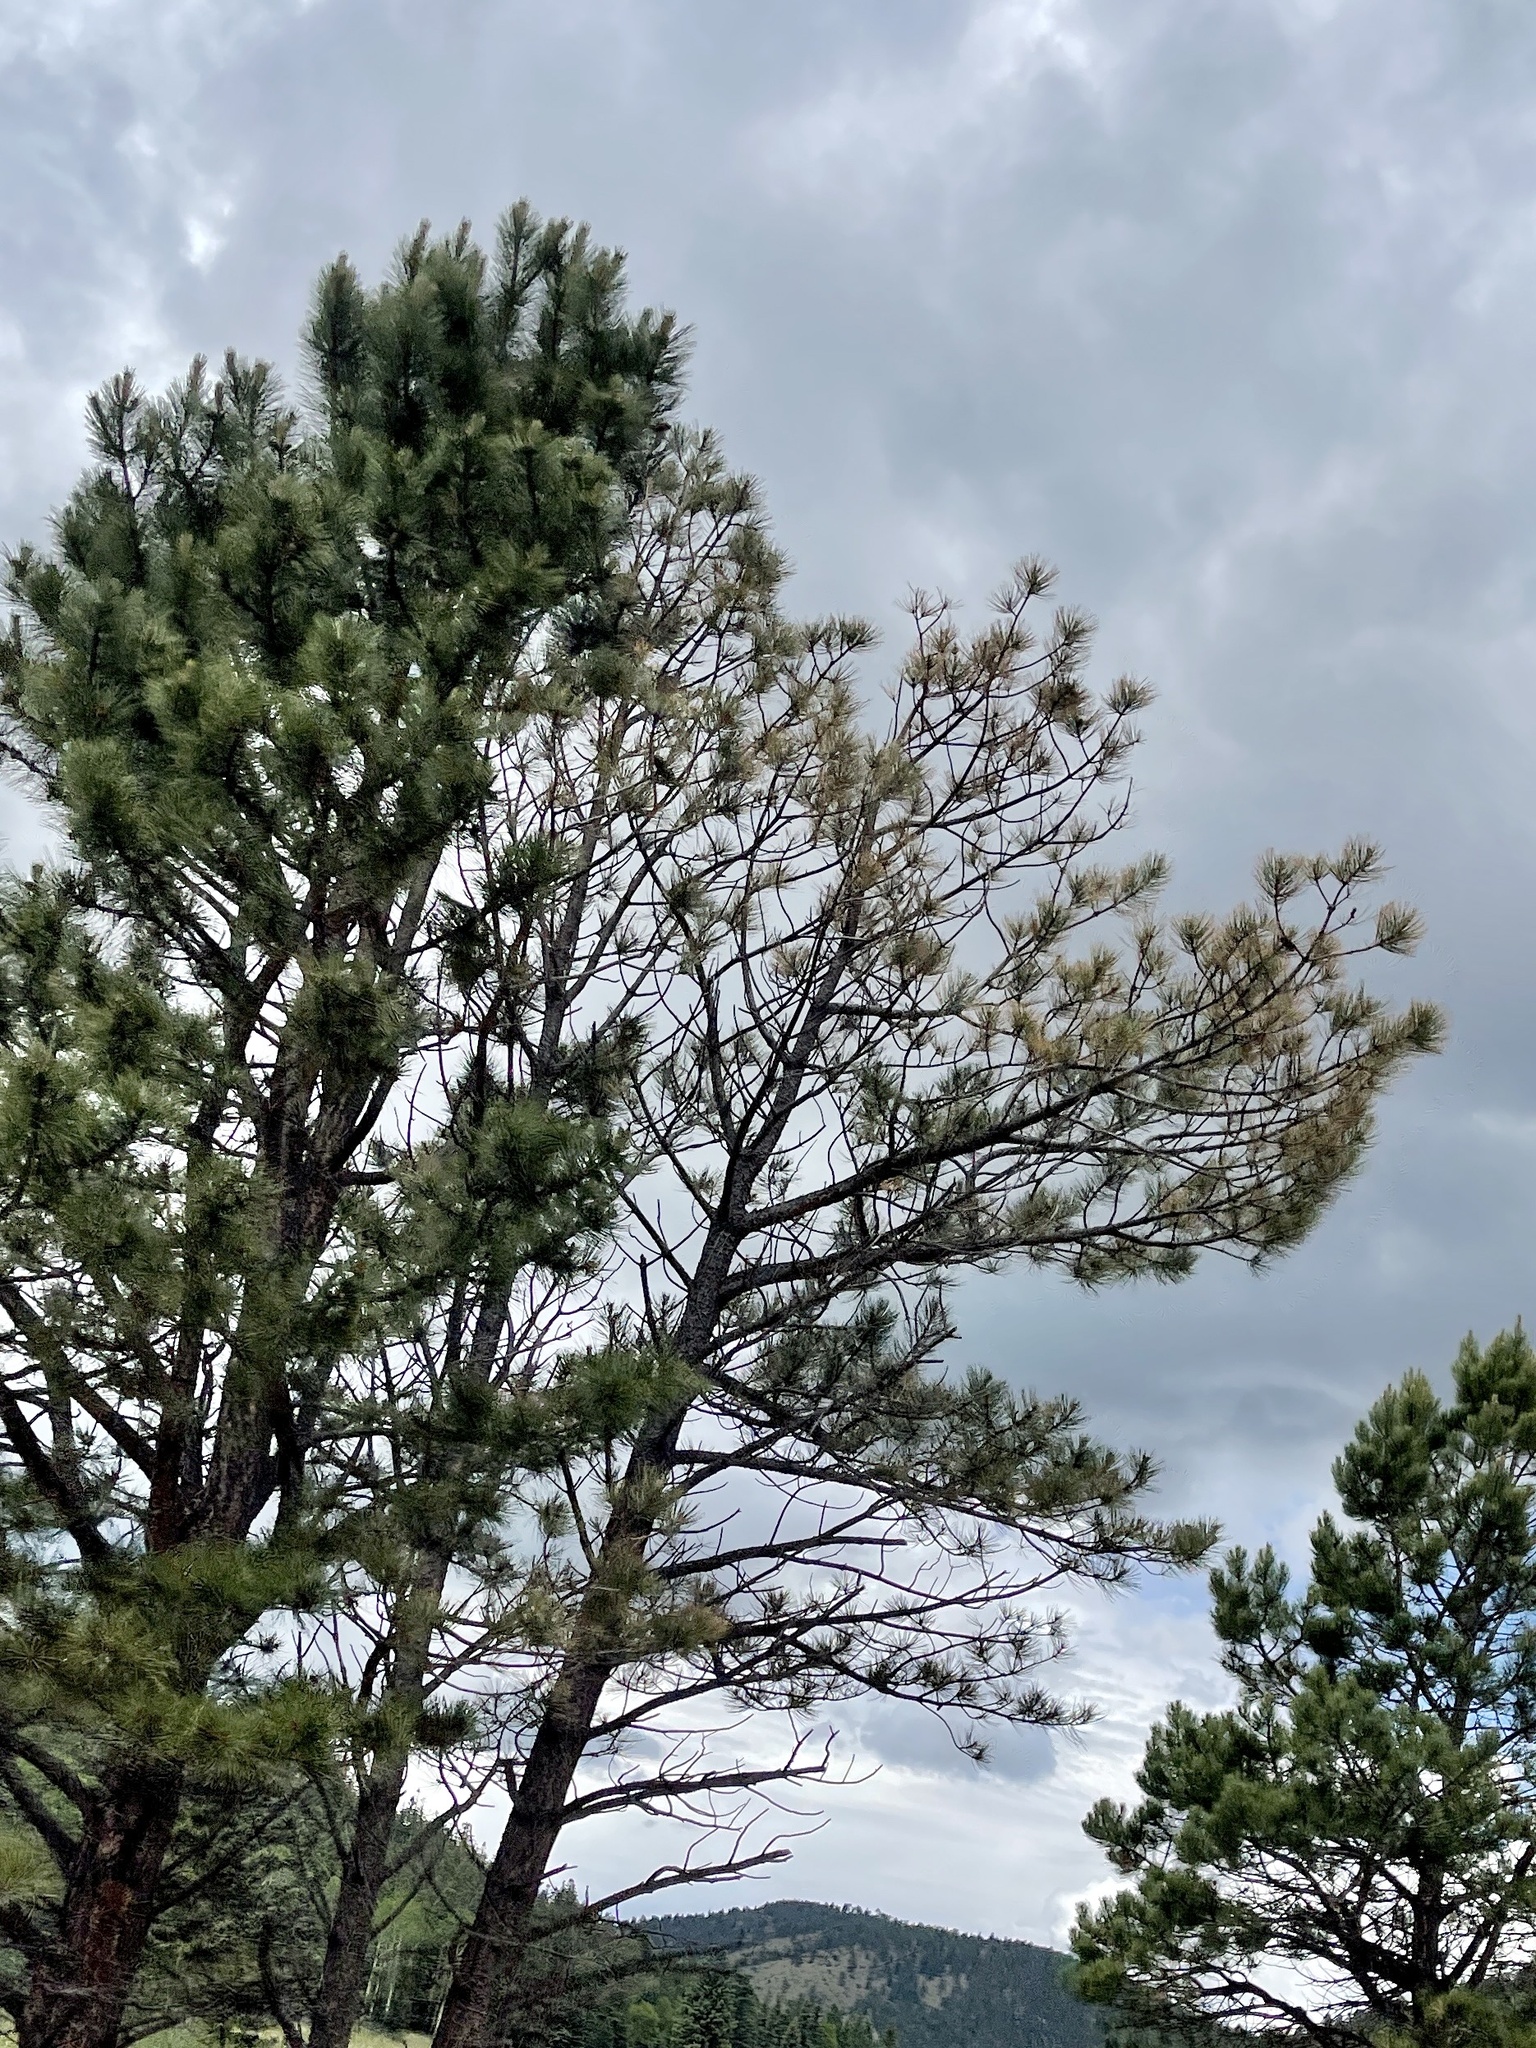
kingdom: Plantae
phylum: Tracheophyta
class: Pinopsida
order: Pinales
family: Pinaceae
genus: Pinus
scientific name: Pinus ponderosa
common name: Western yellow-pine
